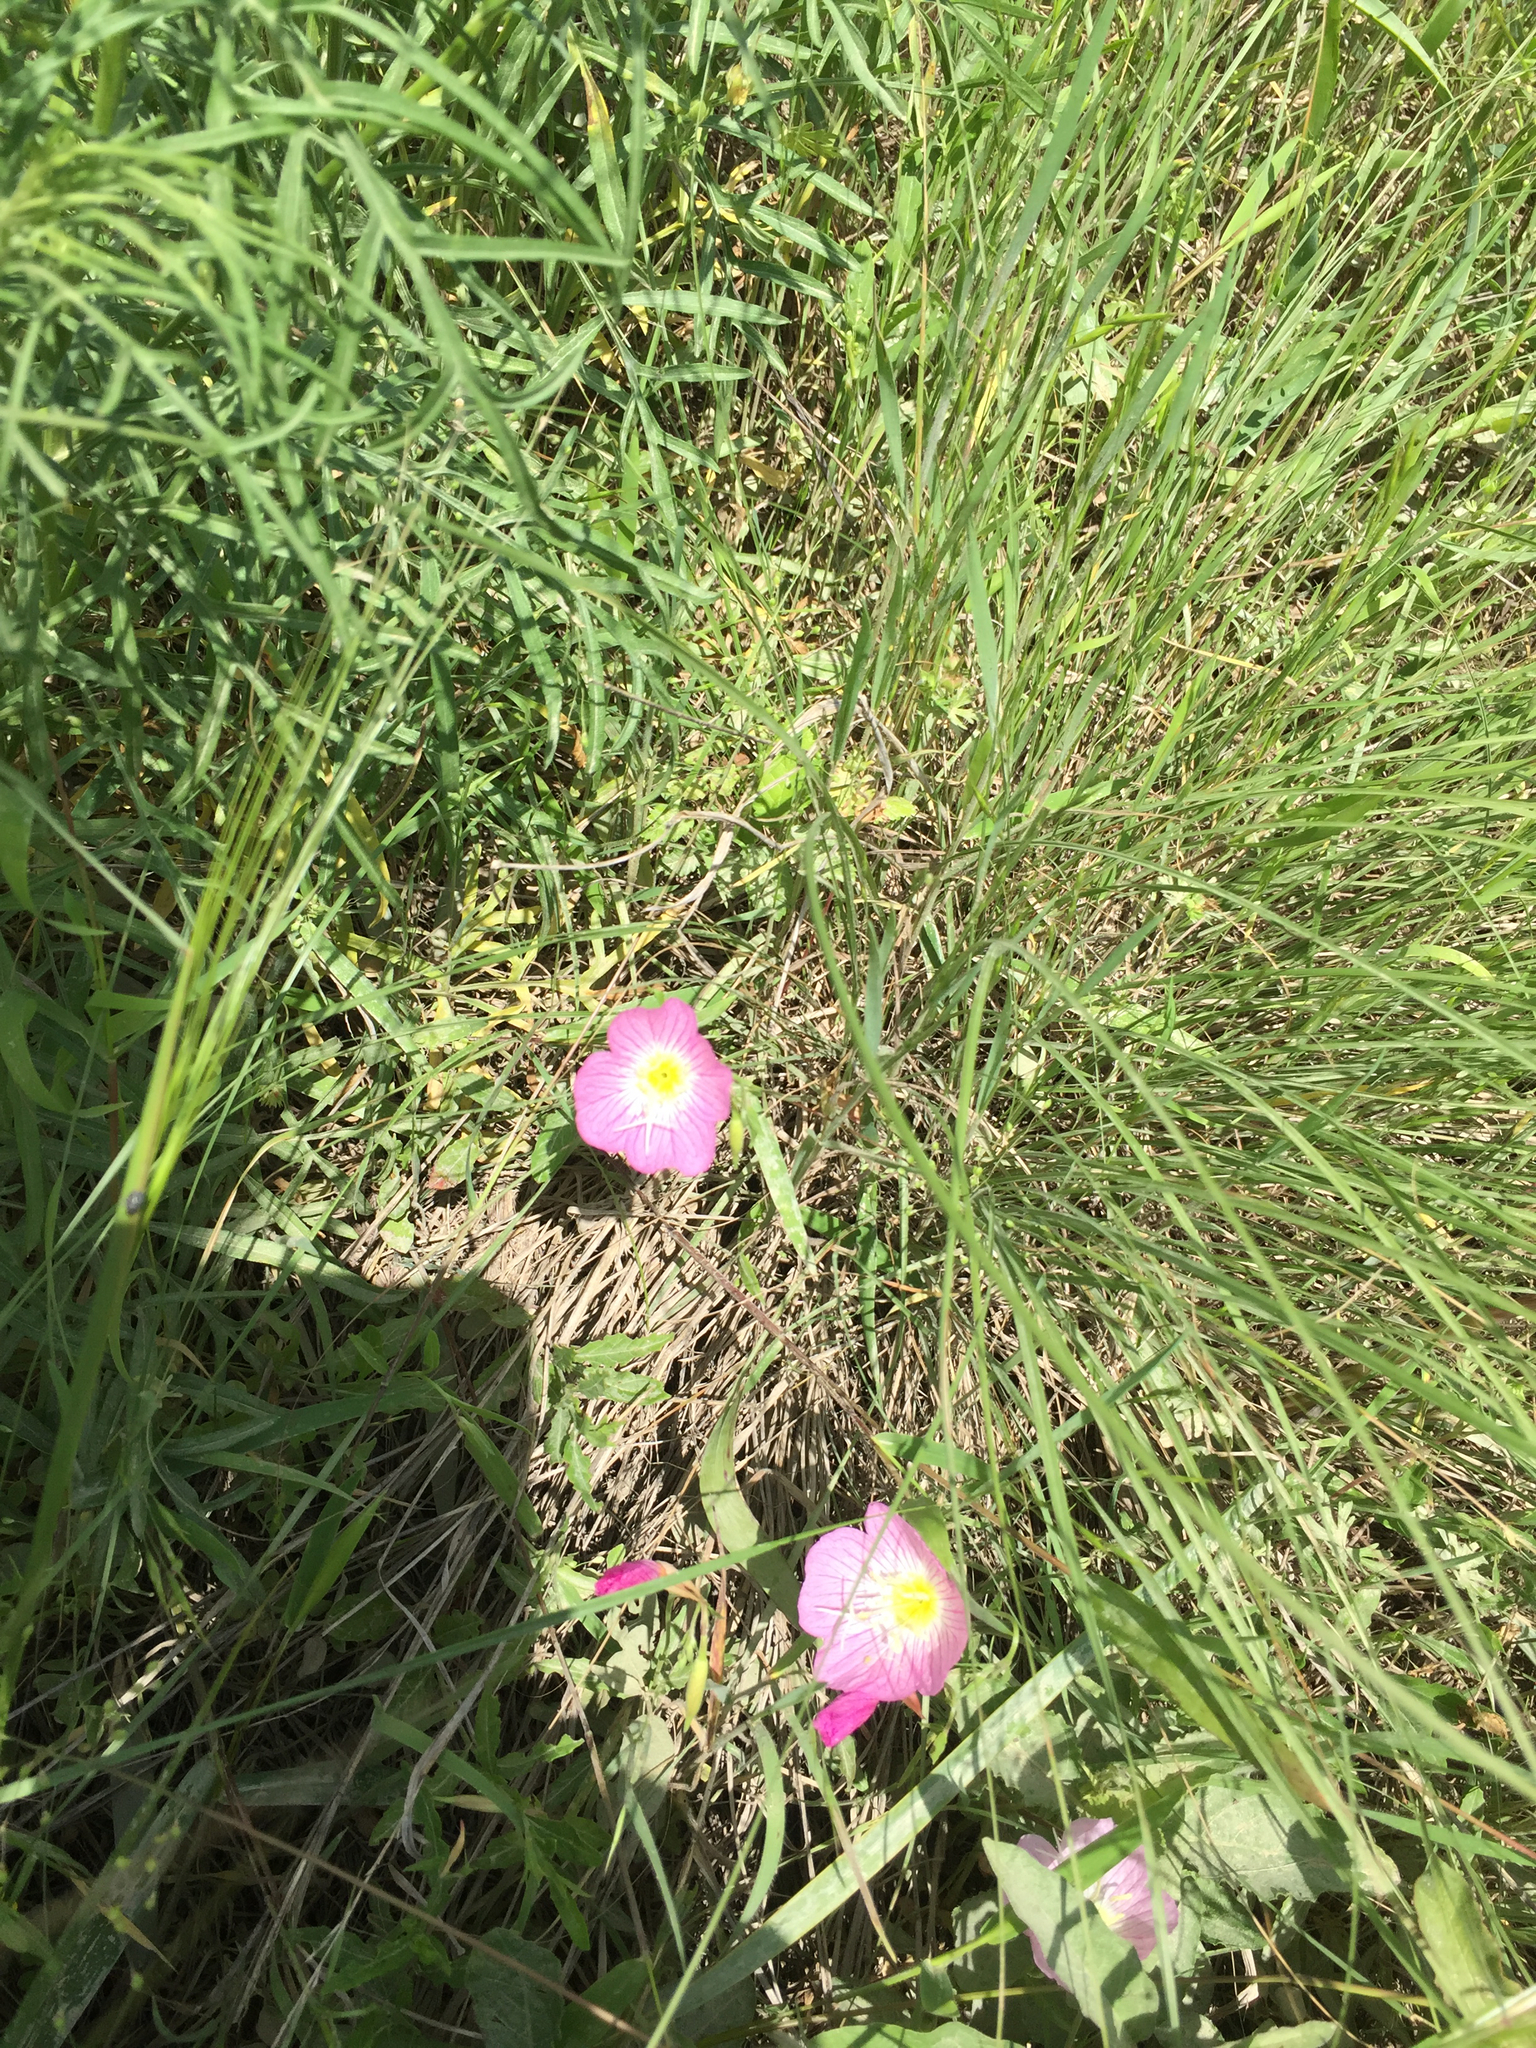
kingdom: Plantae
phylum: Tracheophyta
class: Magnoliopsida
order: Myrtales
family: Onagraceae
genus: Oenothera
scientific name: Oenothera speciosa
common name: White evening-primrose
